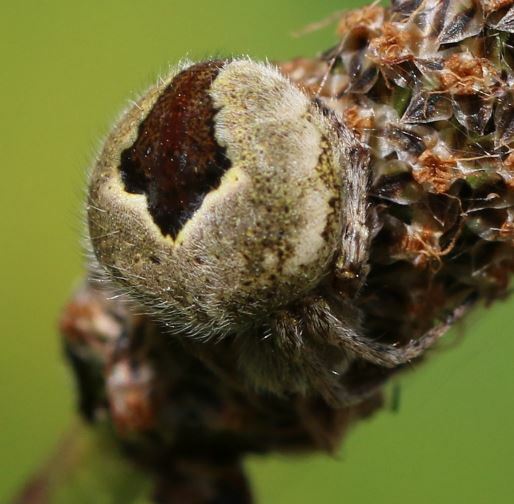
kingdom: Animalia
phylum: Arthropoda
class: Arachnida
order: Araneae
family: Araneidae
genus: Agalenatea
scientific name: Agalenatea redii
